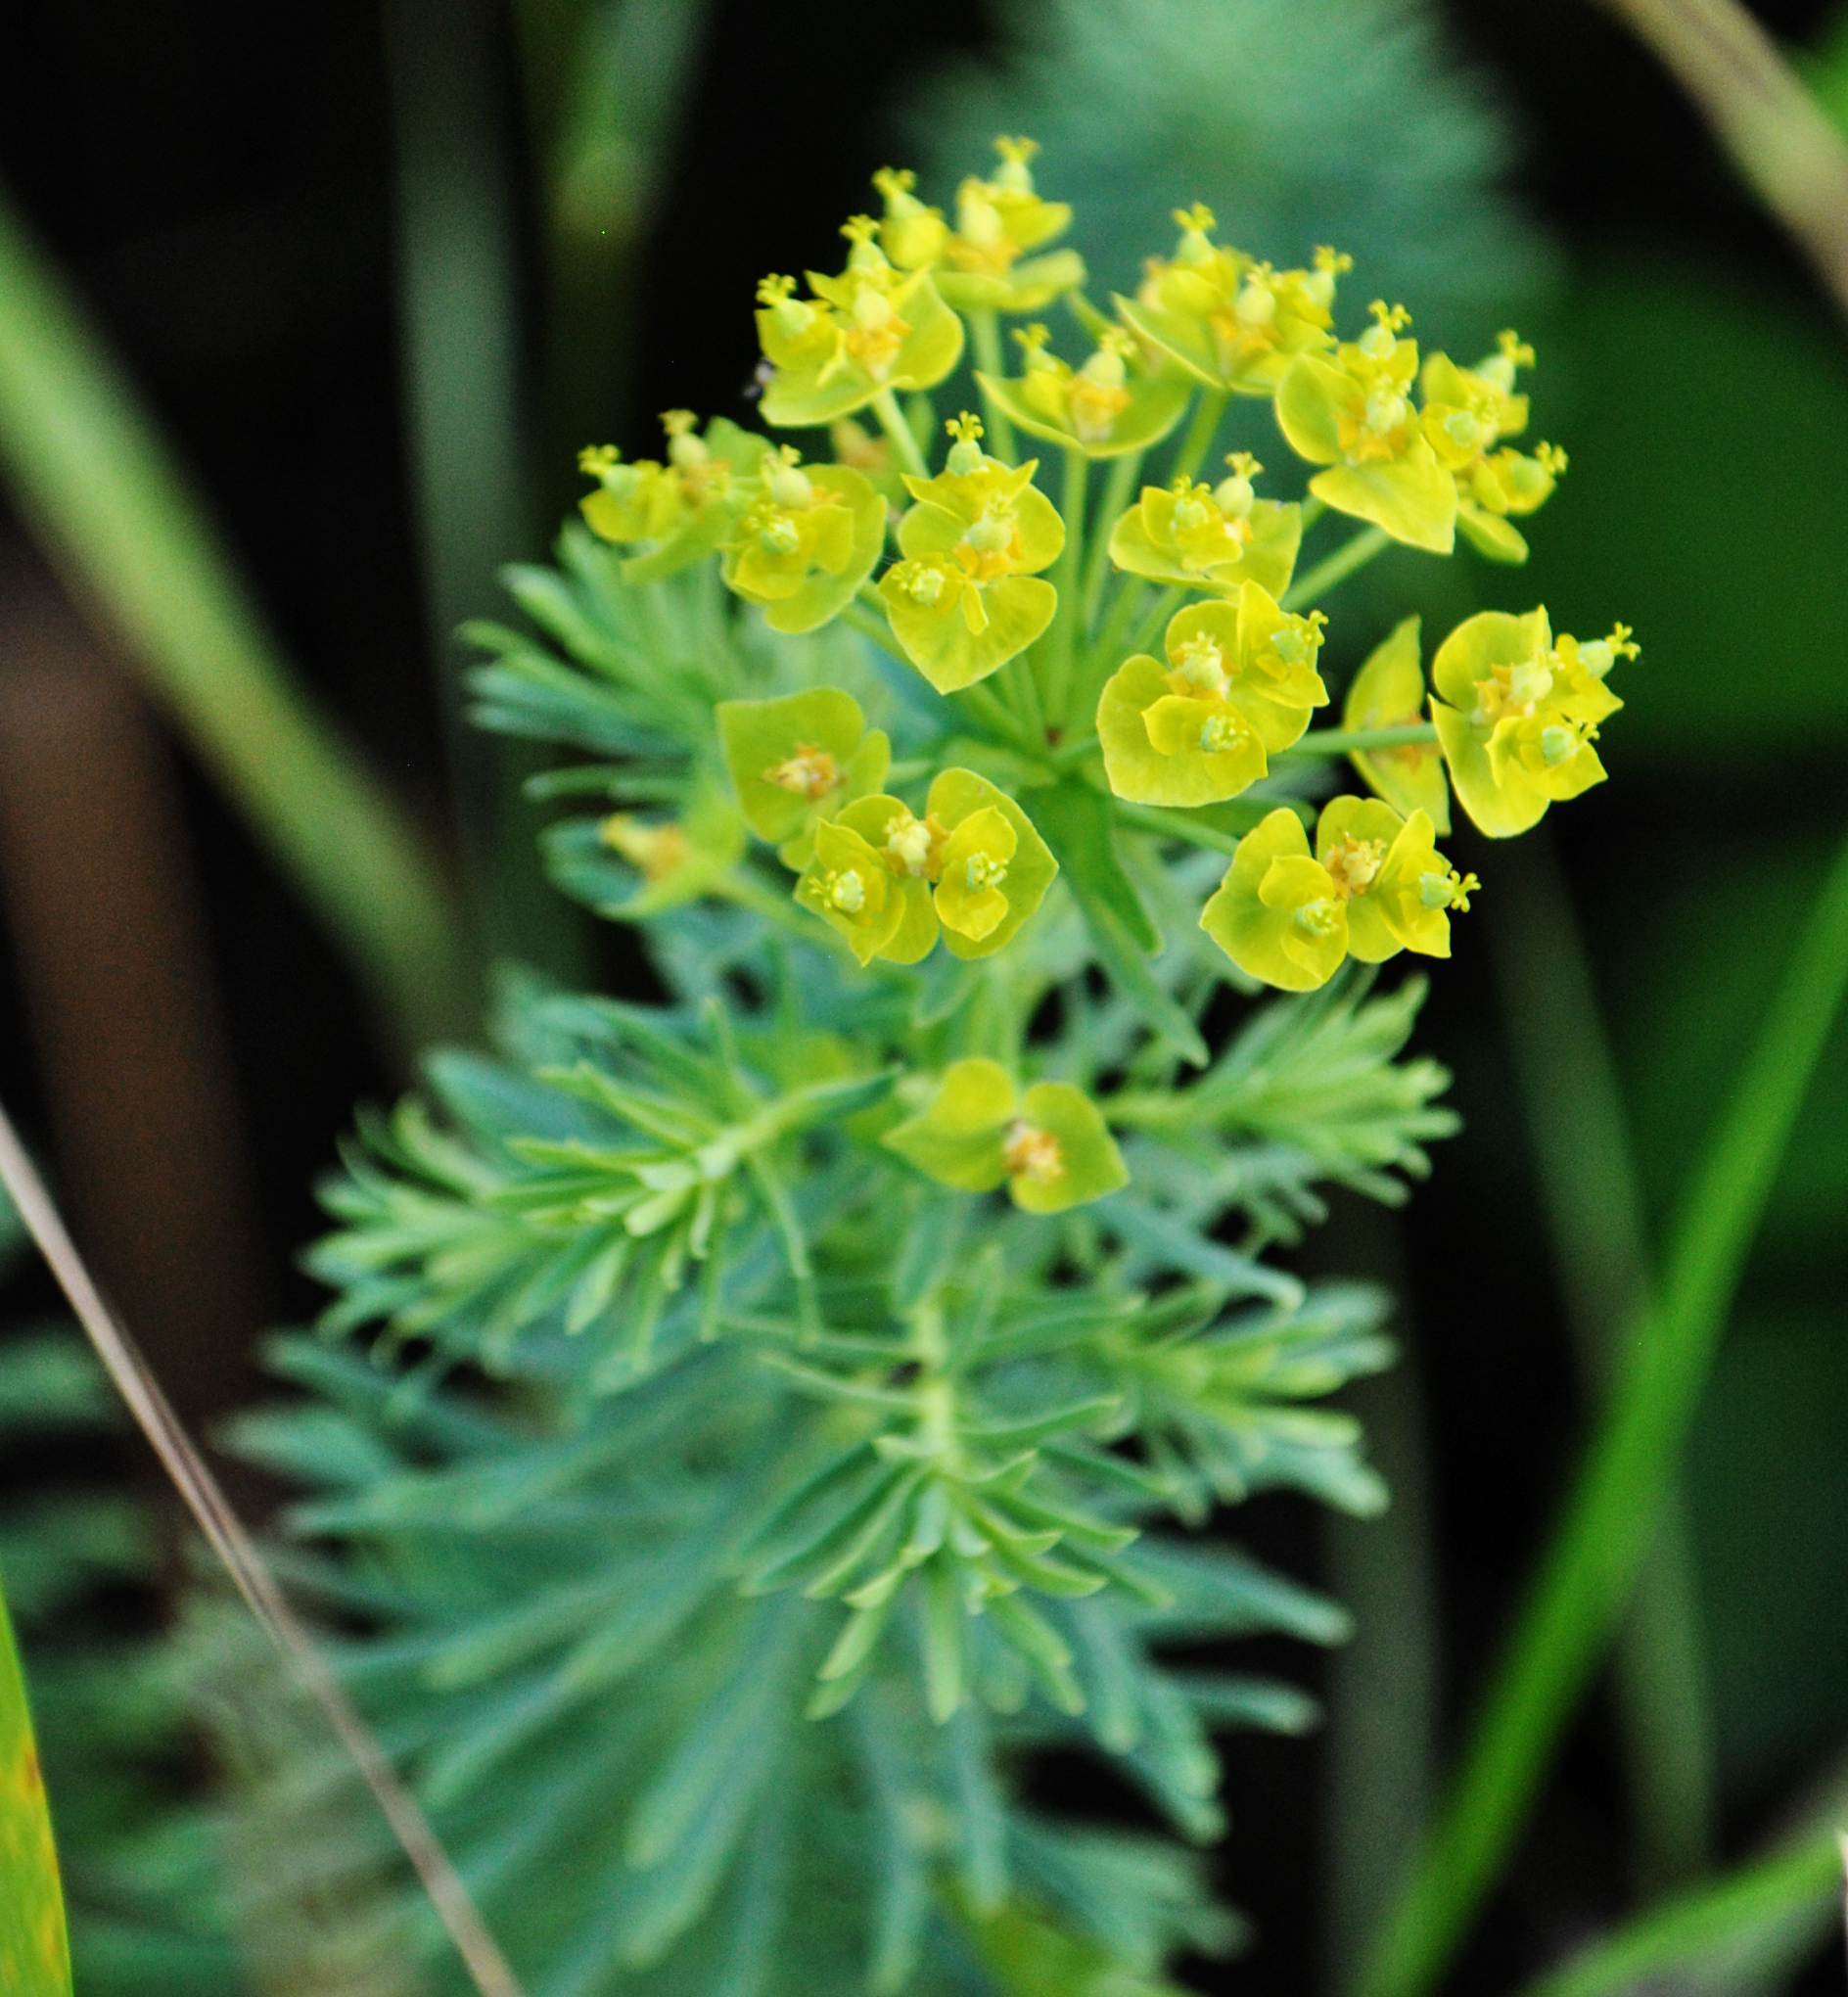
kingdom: Plantae
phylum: Tracheophyta
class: Magnoliopsida
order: Malpighiales
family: Euphorbiaceae
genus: Euphorbia
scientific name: Euphorbia cyparissias
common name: Cypress spurge
